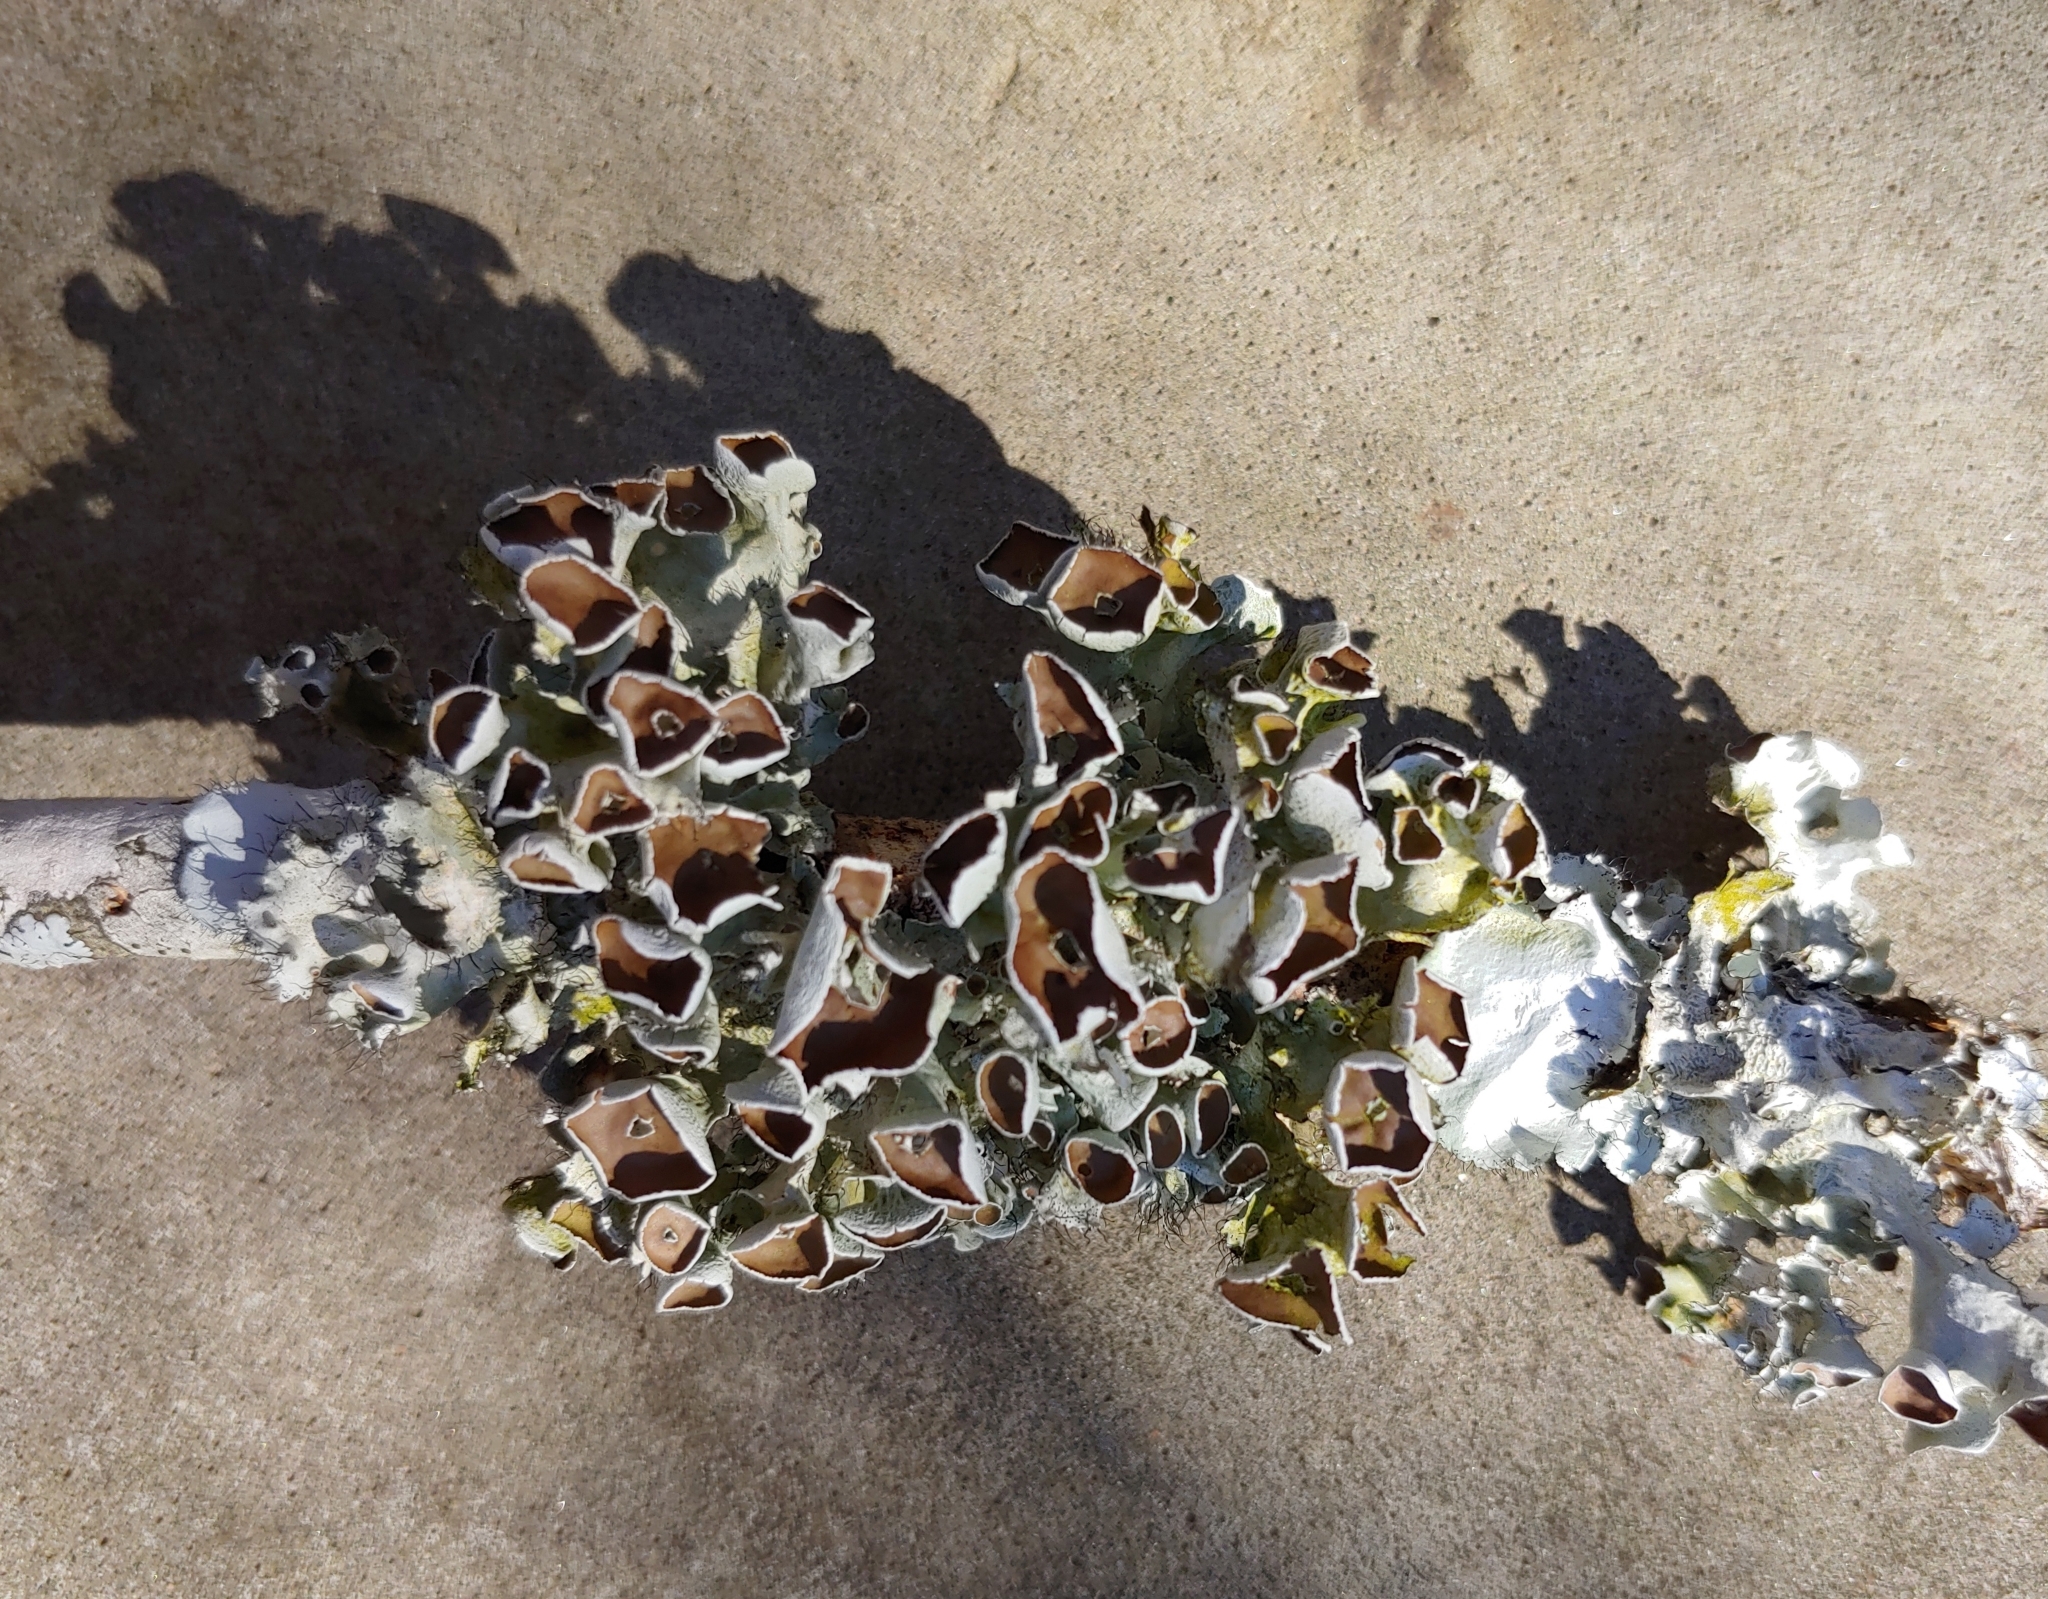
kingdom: Fungi
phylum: Ascomycota
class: Lecanoromycetes
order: Lecanorales
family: Parmeliaceae
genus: Parmotrema
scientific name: Parmotrema perforatum
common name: Perforated ruffle lichen
